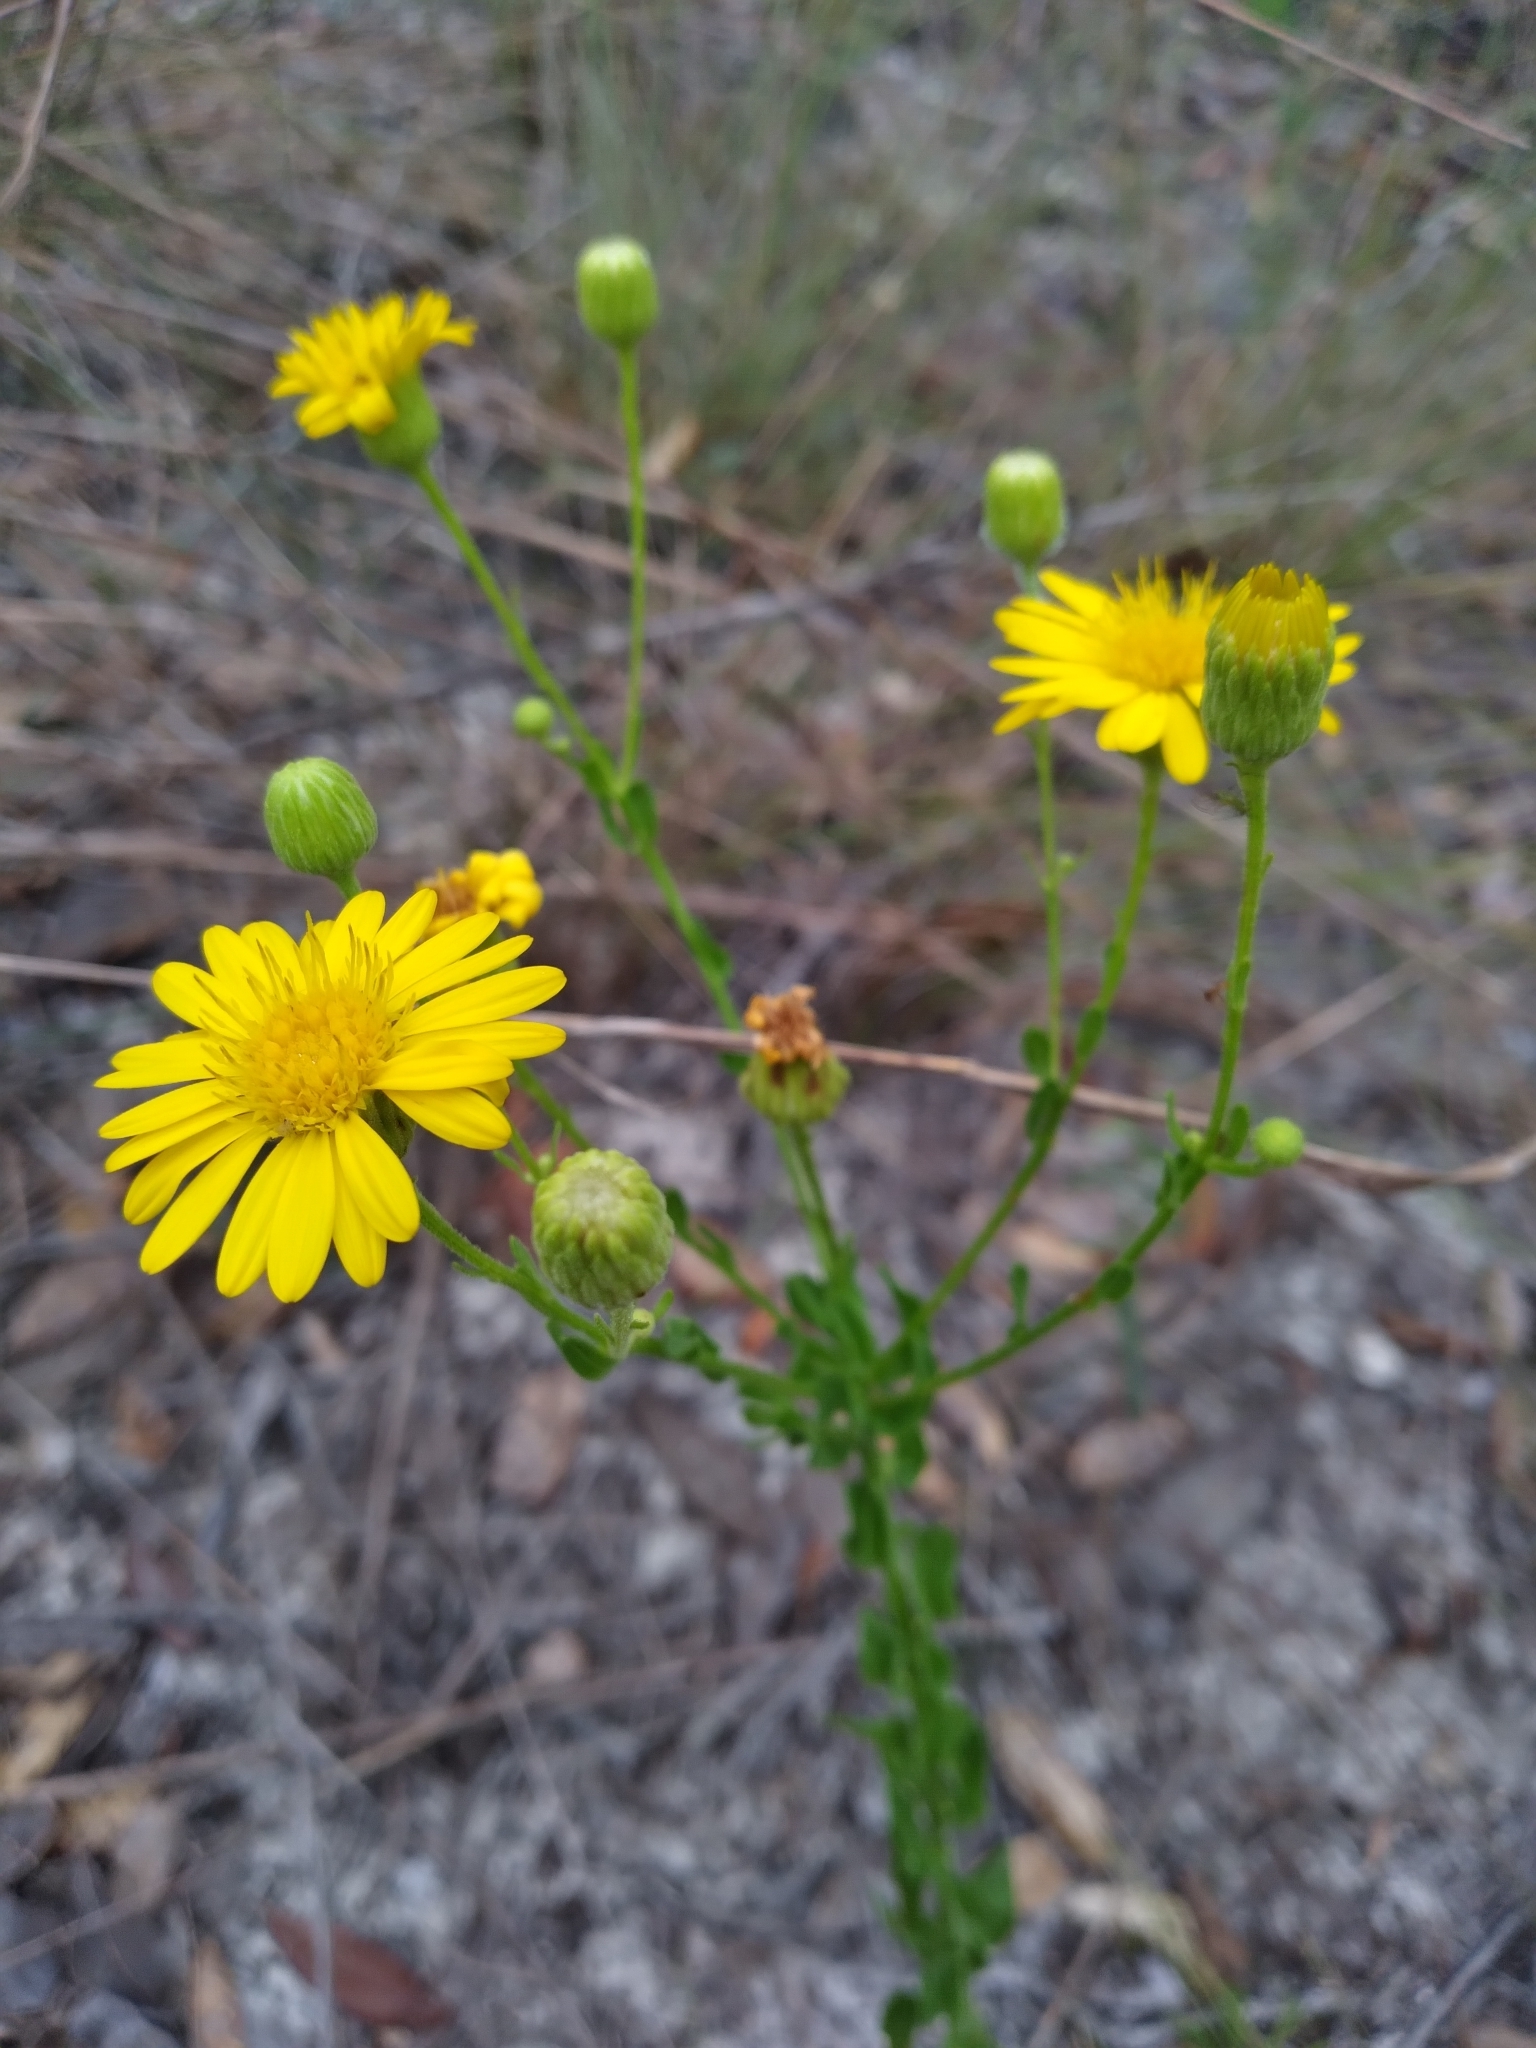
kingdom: Plantae
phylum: Tracheophyta
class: Magnoliopsida
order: Asterales
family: Asteraceae
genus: Chrysopsis
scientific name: Chrysopsis scabrella
